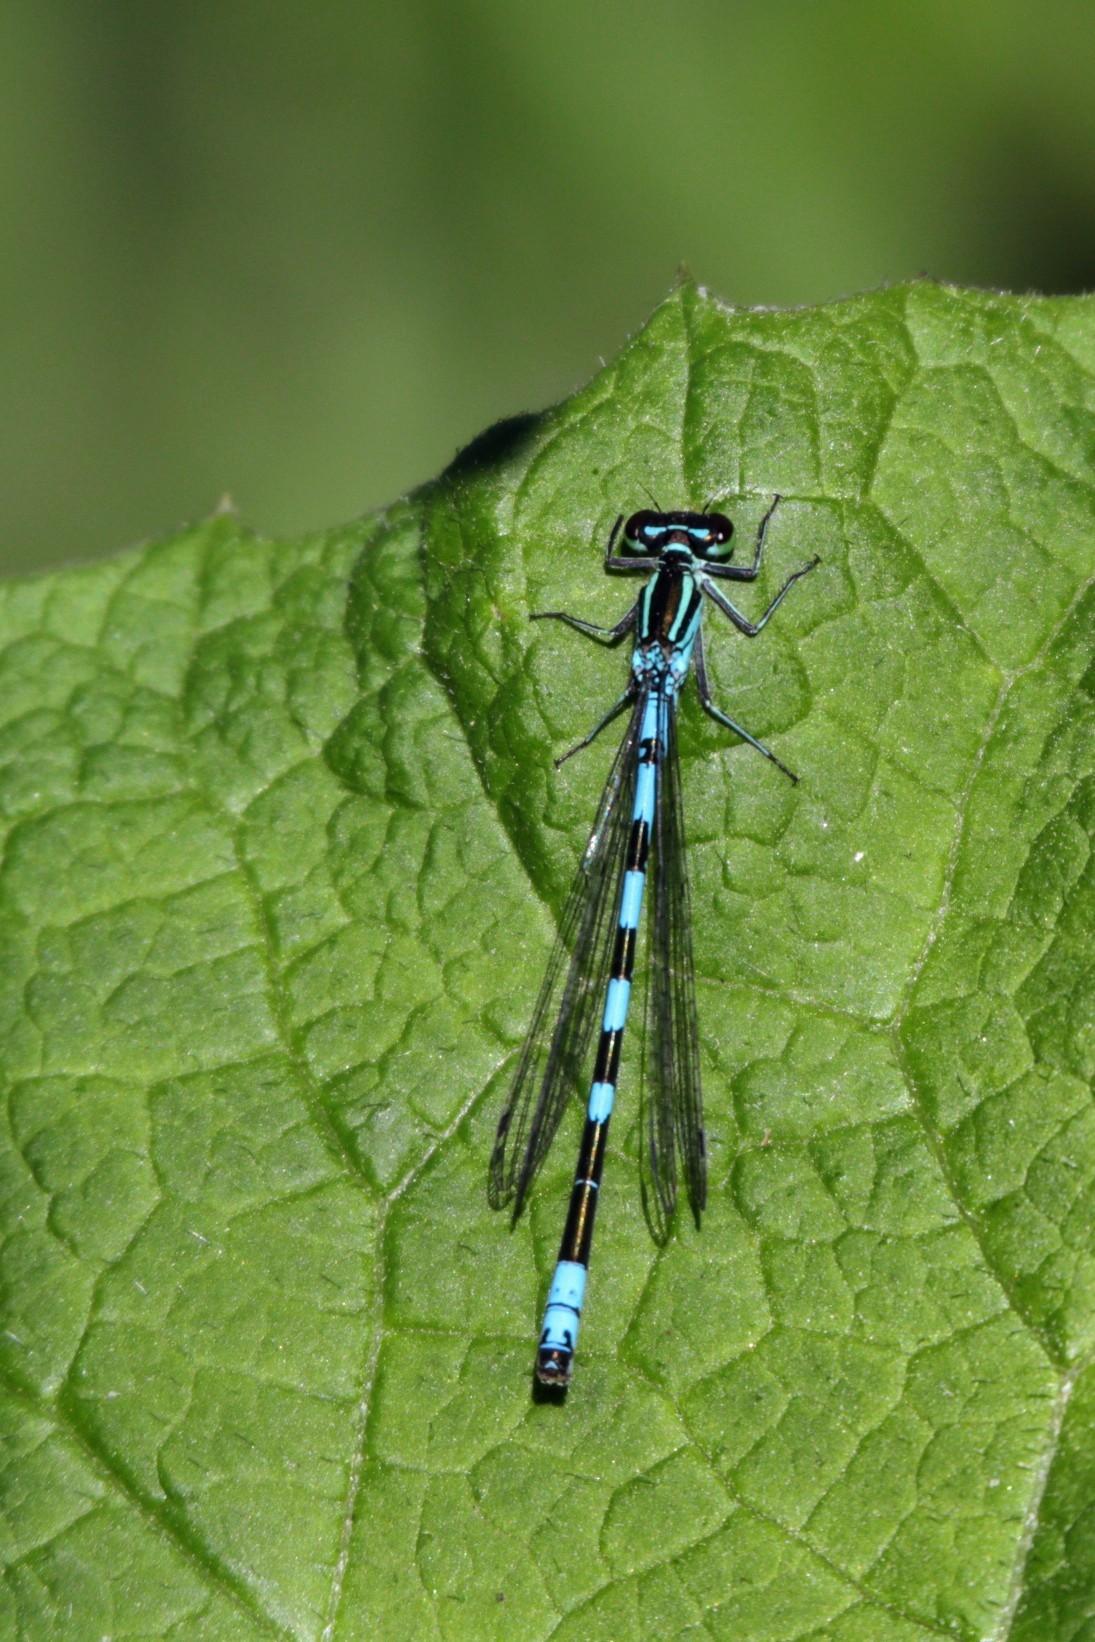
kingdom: Animalia
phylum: Arthropoda
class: Insecta
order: Odonata
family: Coenagrionidae
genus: Coenagrion
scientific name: Coenagrion hastulatum
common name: Spearhead bluet
